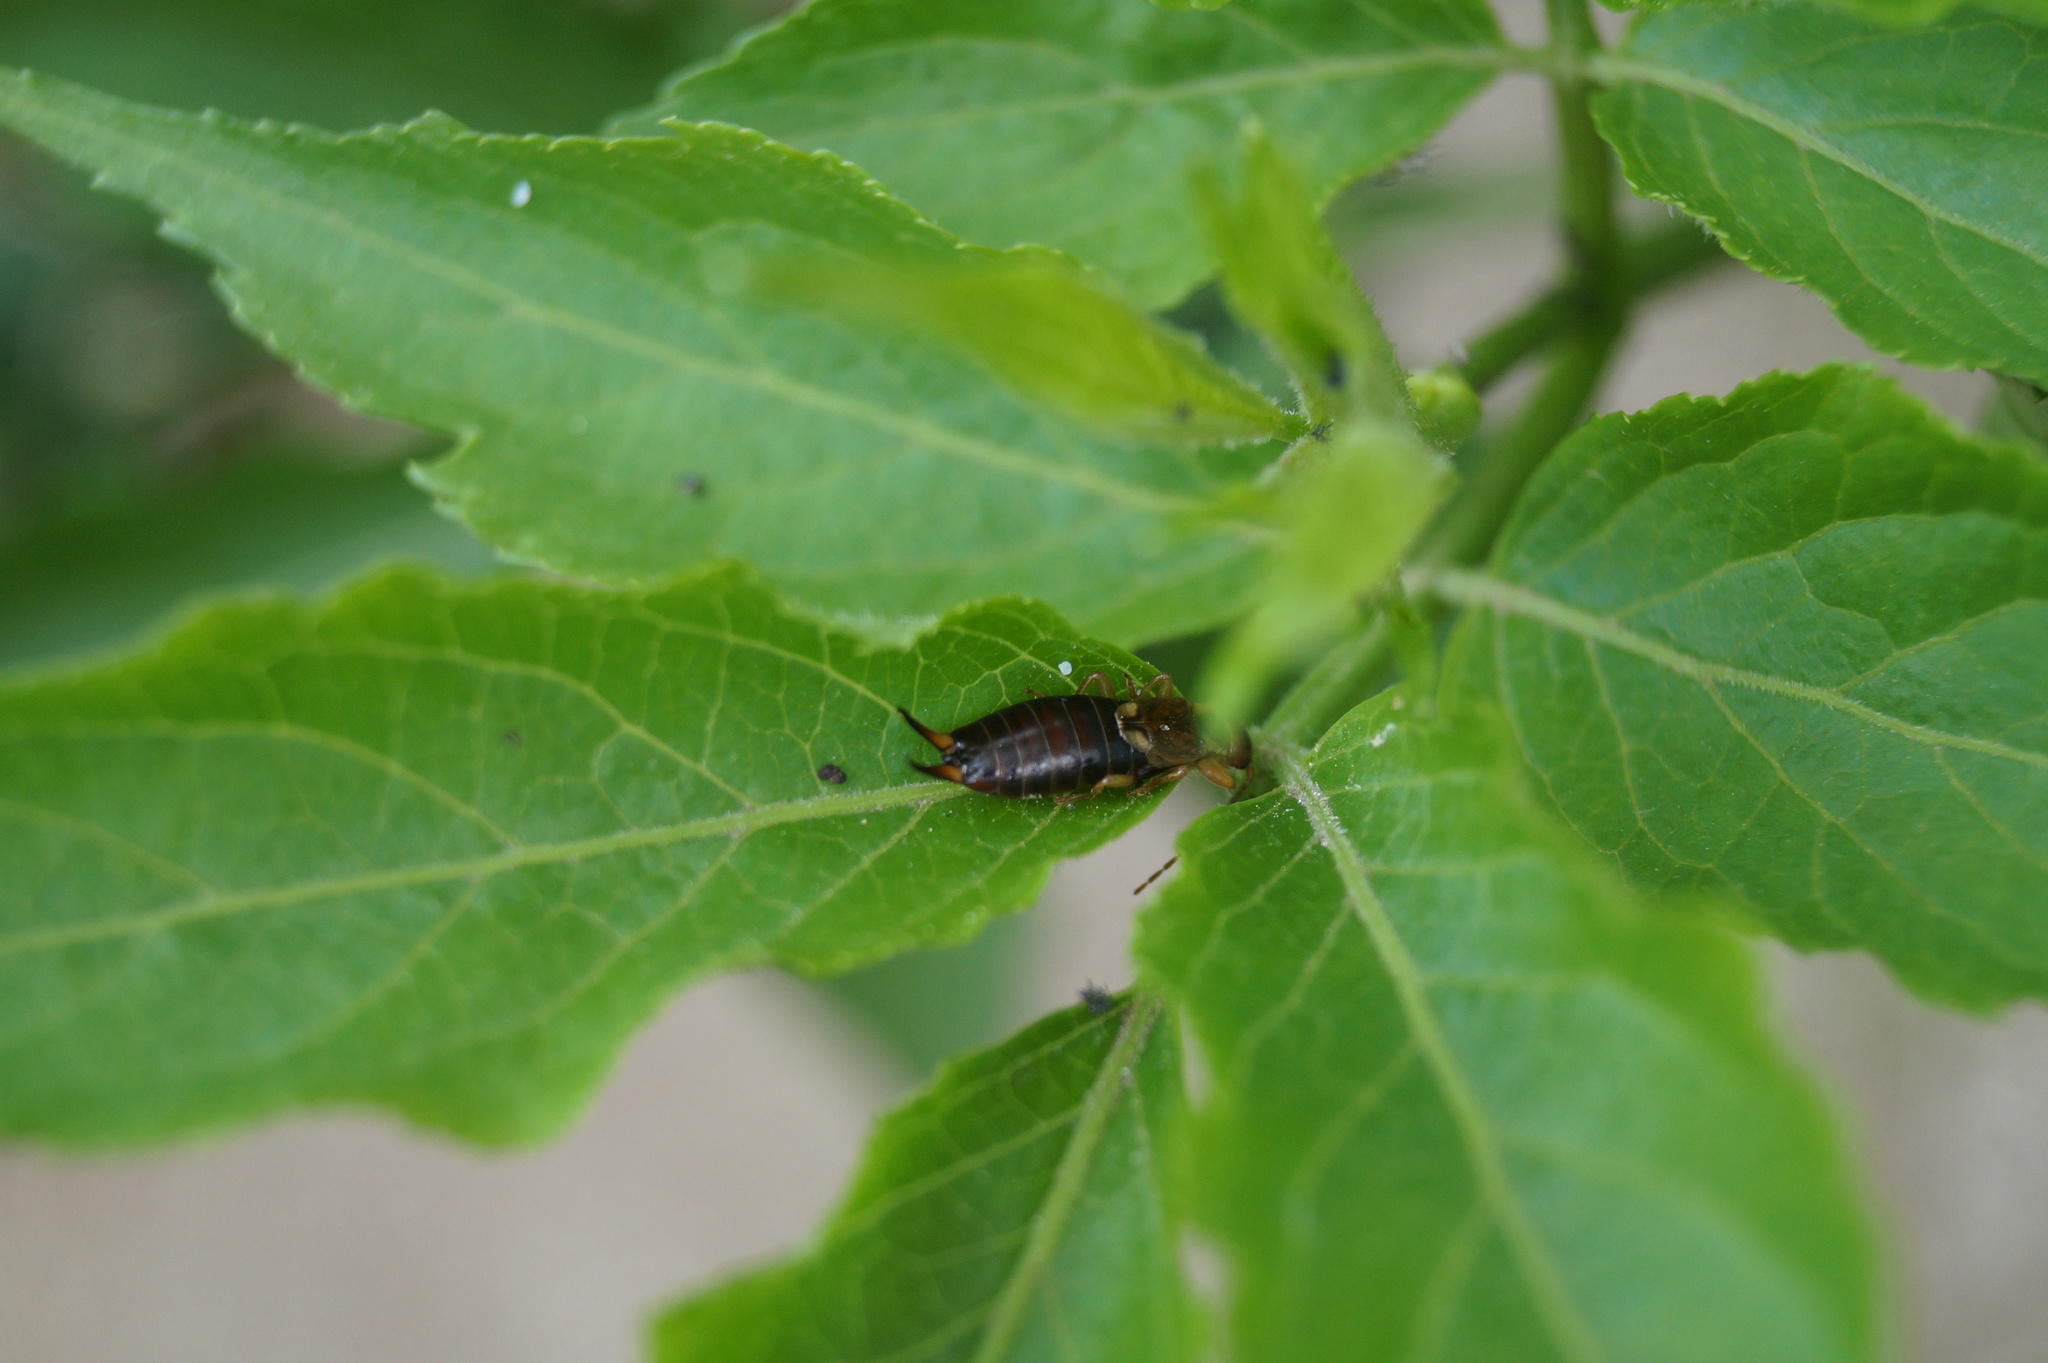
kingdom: Animalia
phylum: Arthropoda
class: Insecta
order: Dermaptera
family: Forficulidae
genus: Forficula
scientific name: Forficula
